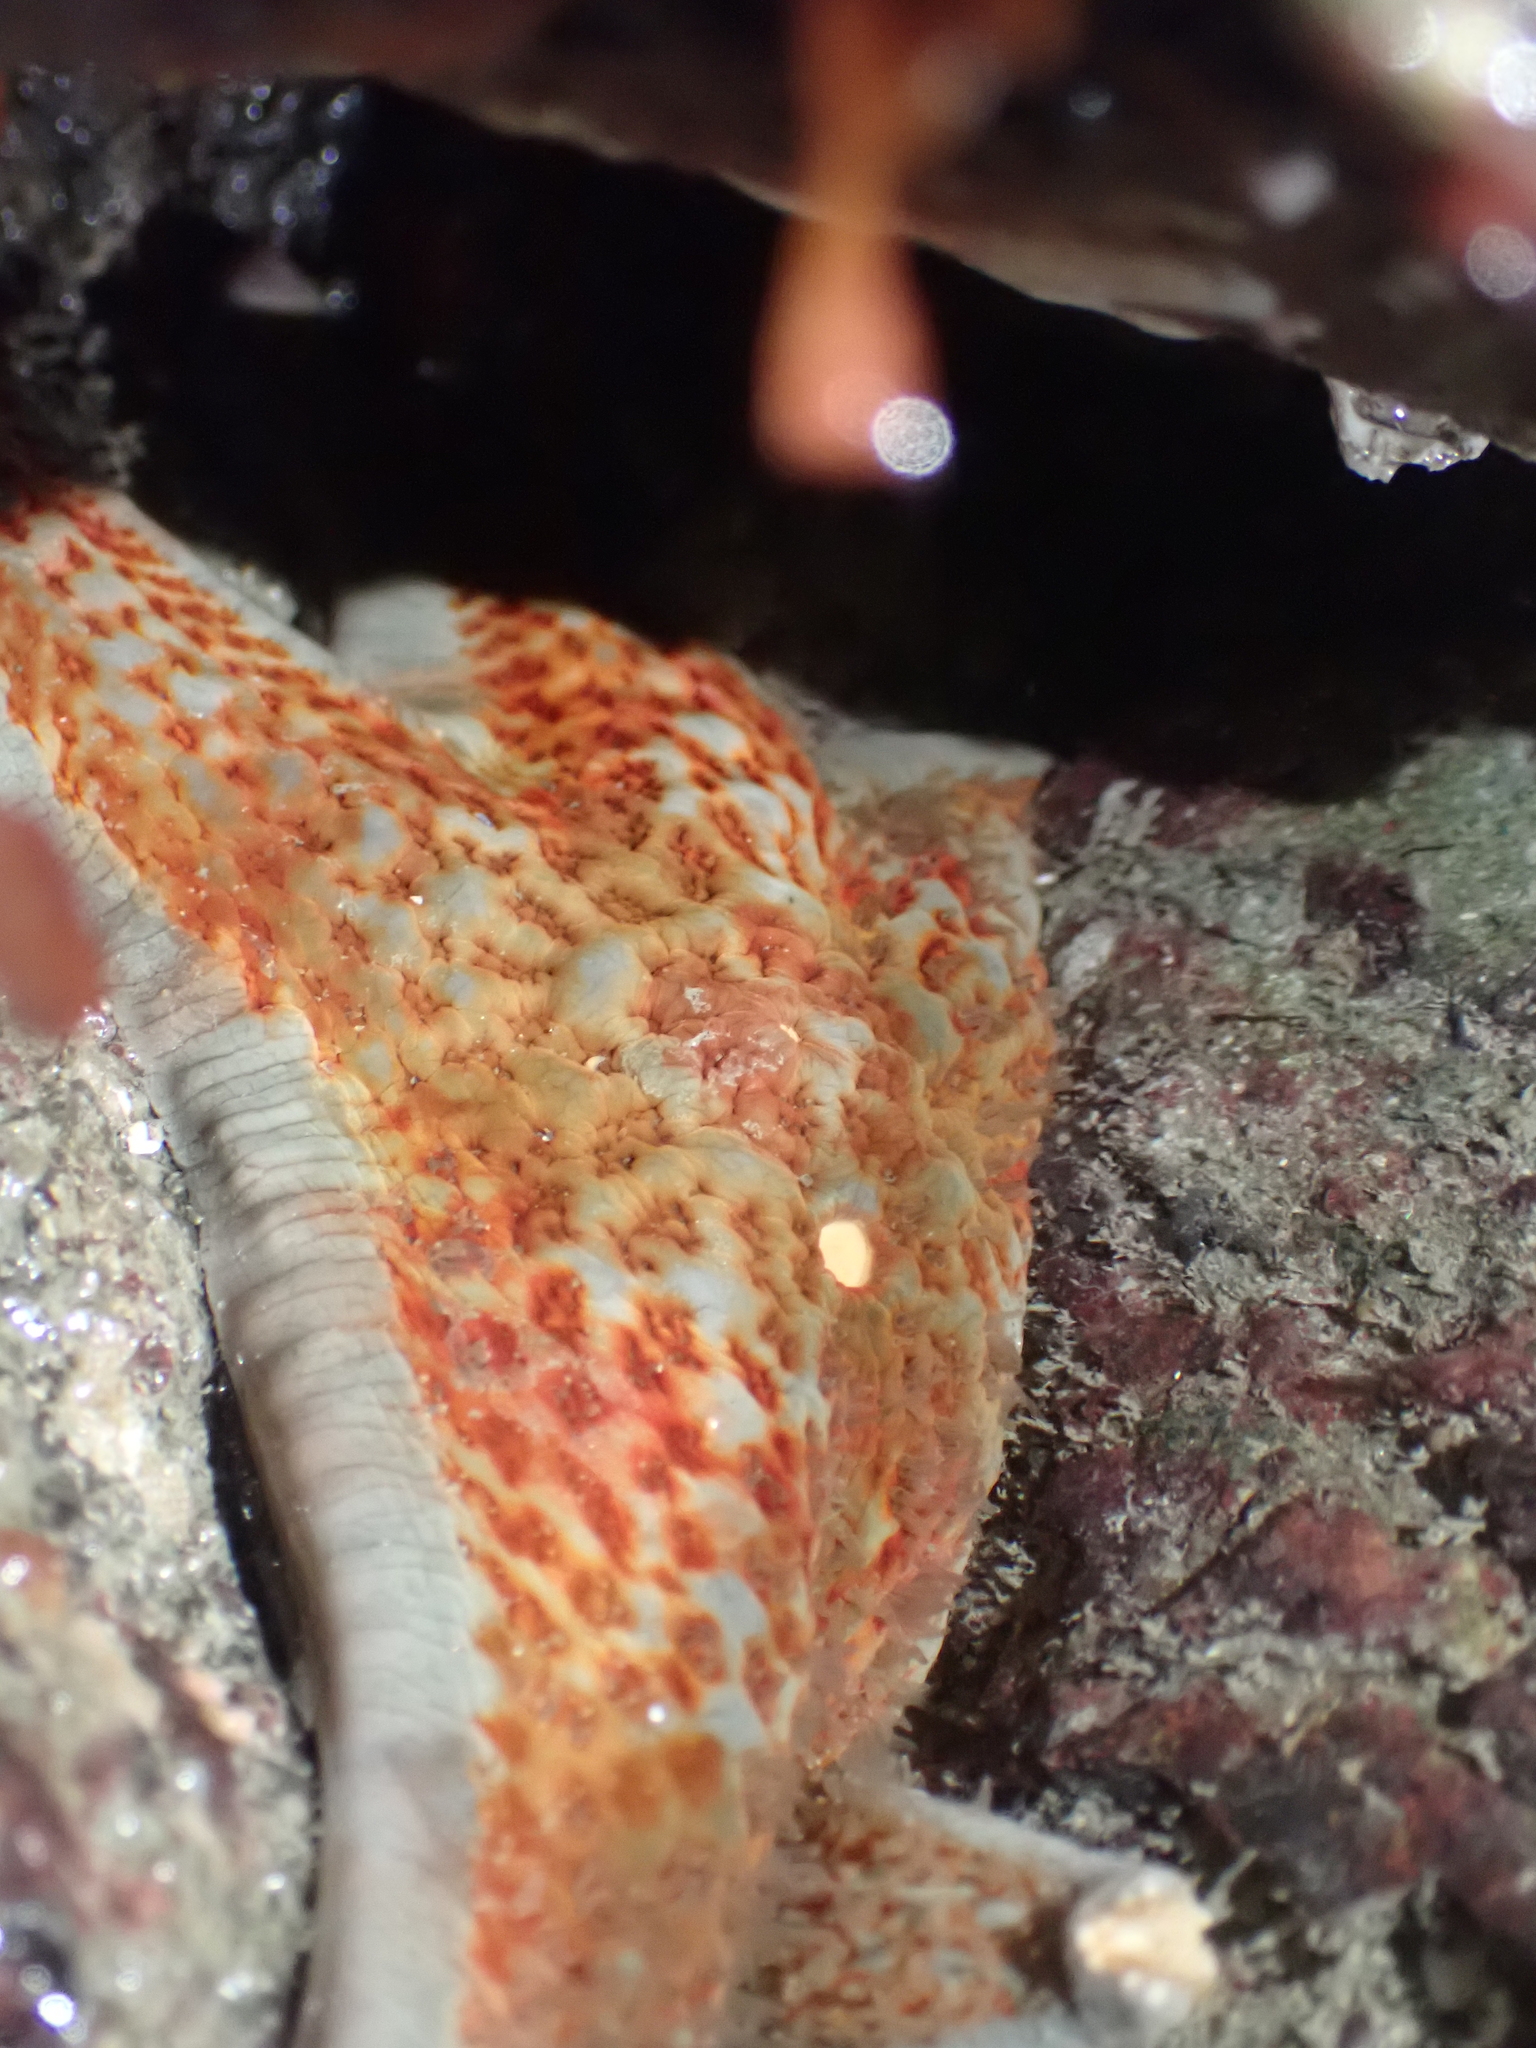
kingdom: Animalia
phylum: Echinodermata
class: Asteroidea
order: Valvatida
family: Asteropseidae
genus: Dermasterias
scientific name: Dermasterias imbricata
